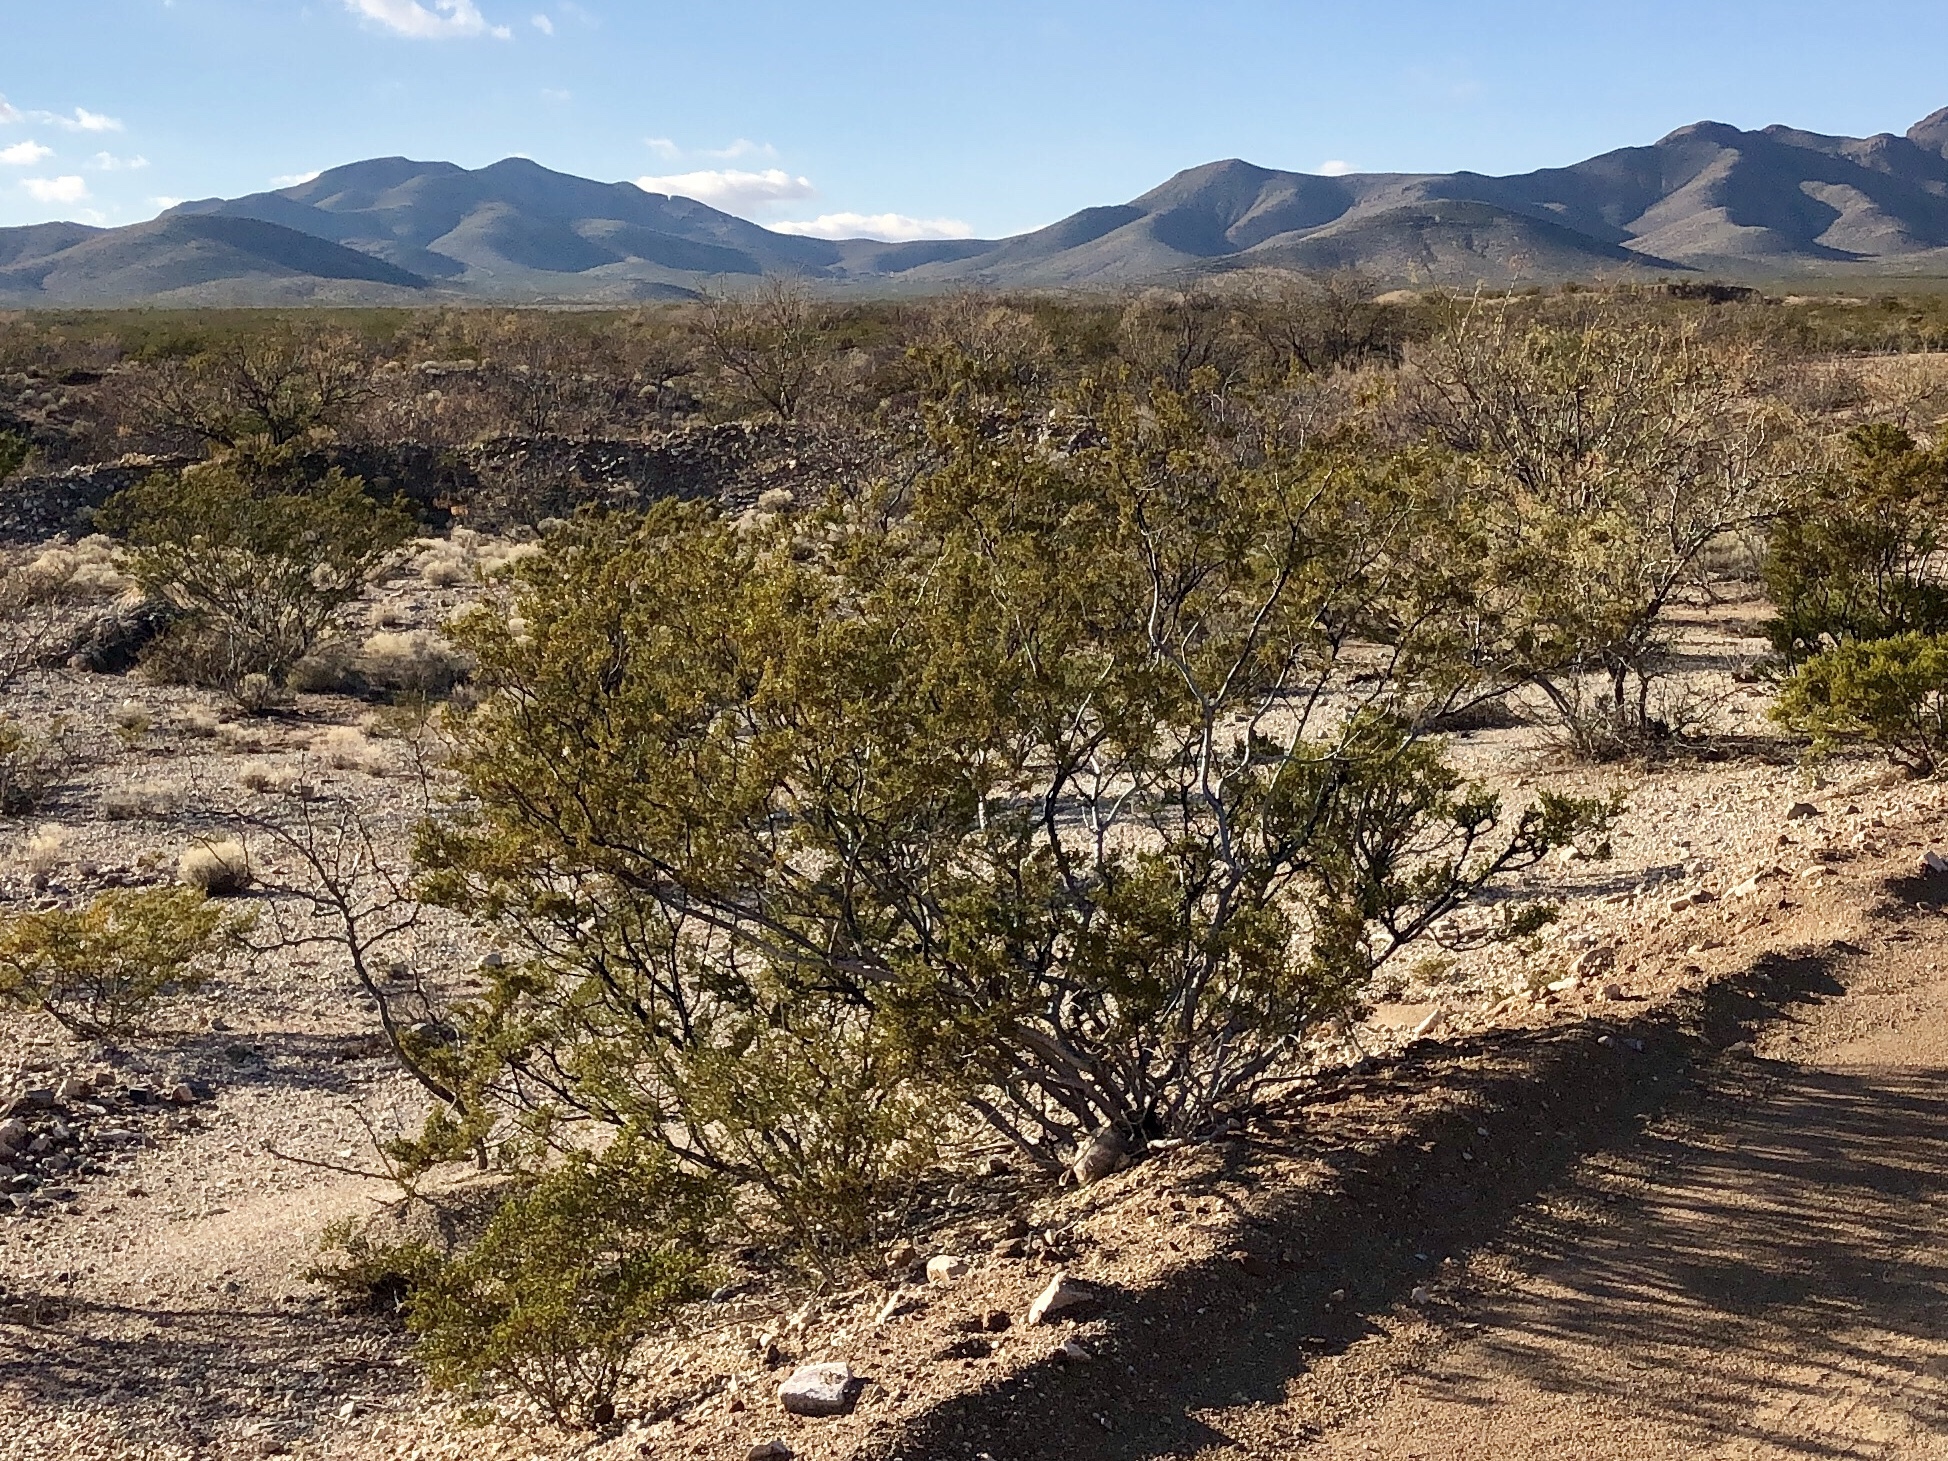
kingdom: Plantae
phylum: Tracheophyta
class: Magnoliopsida
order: Zygophyllales
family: Zygophyllaceae
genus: Larrea
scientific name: Larrea tridentata
